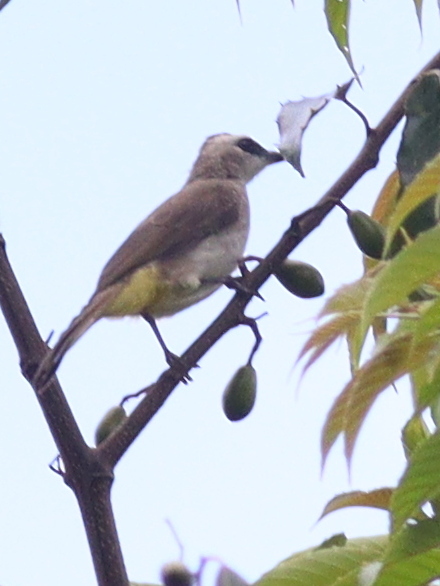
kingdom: Animalia
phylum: Chordata
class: Aves
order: Passeriformes
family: Pycnonotidae
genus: Pycnonotus
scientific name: Pycnonotus goiavier
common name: Yellow-vented bulbul
